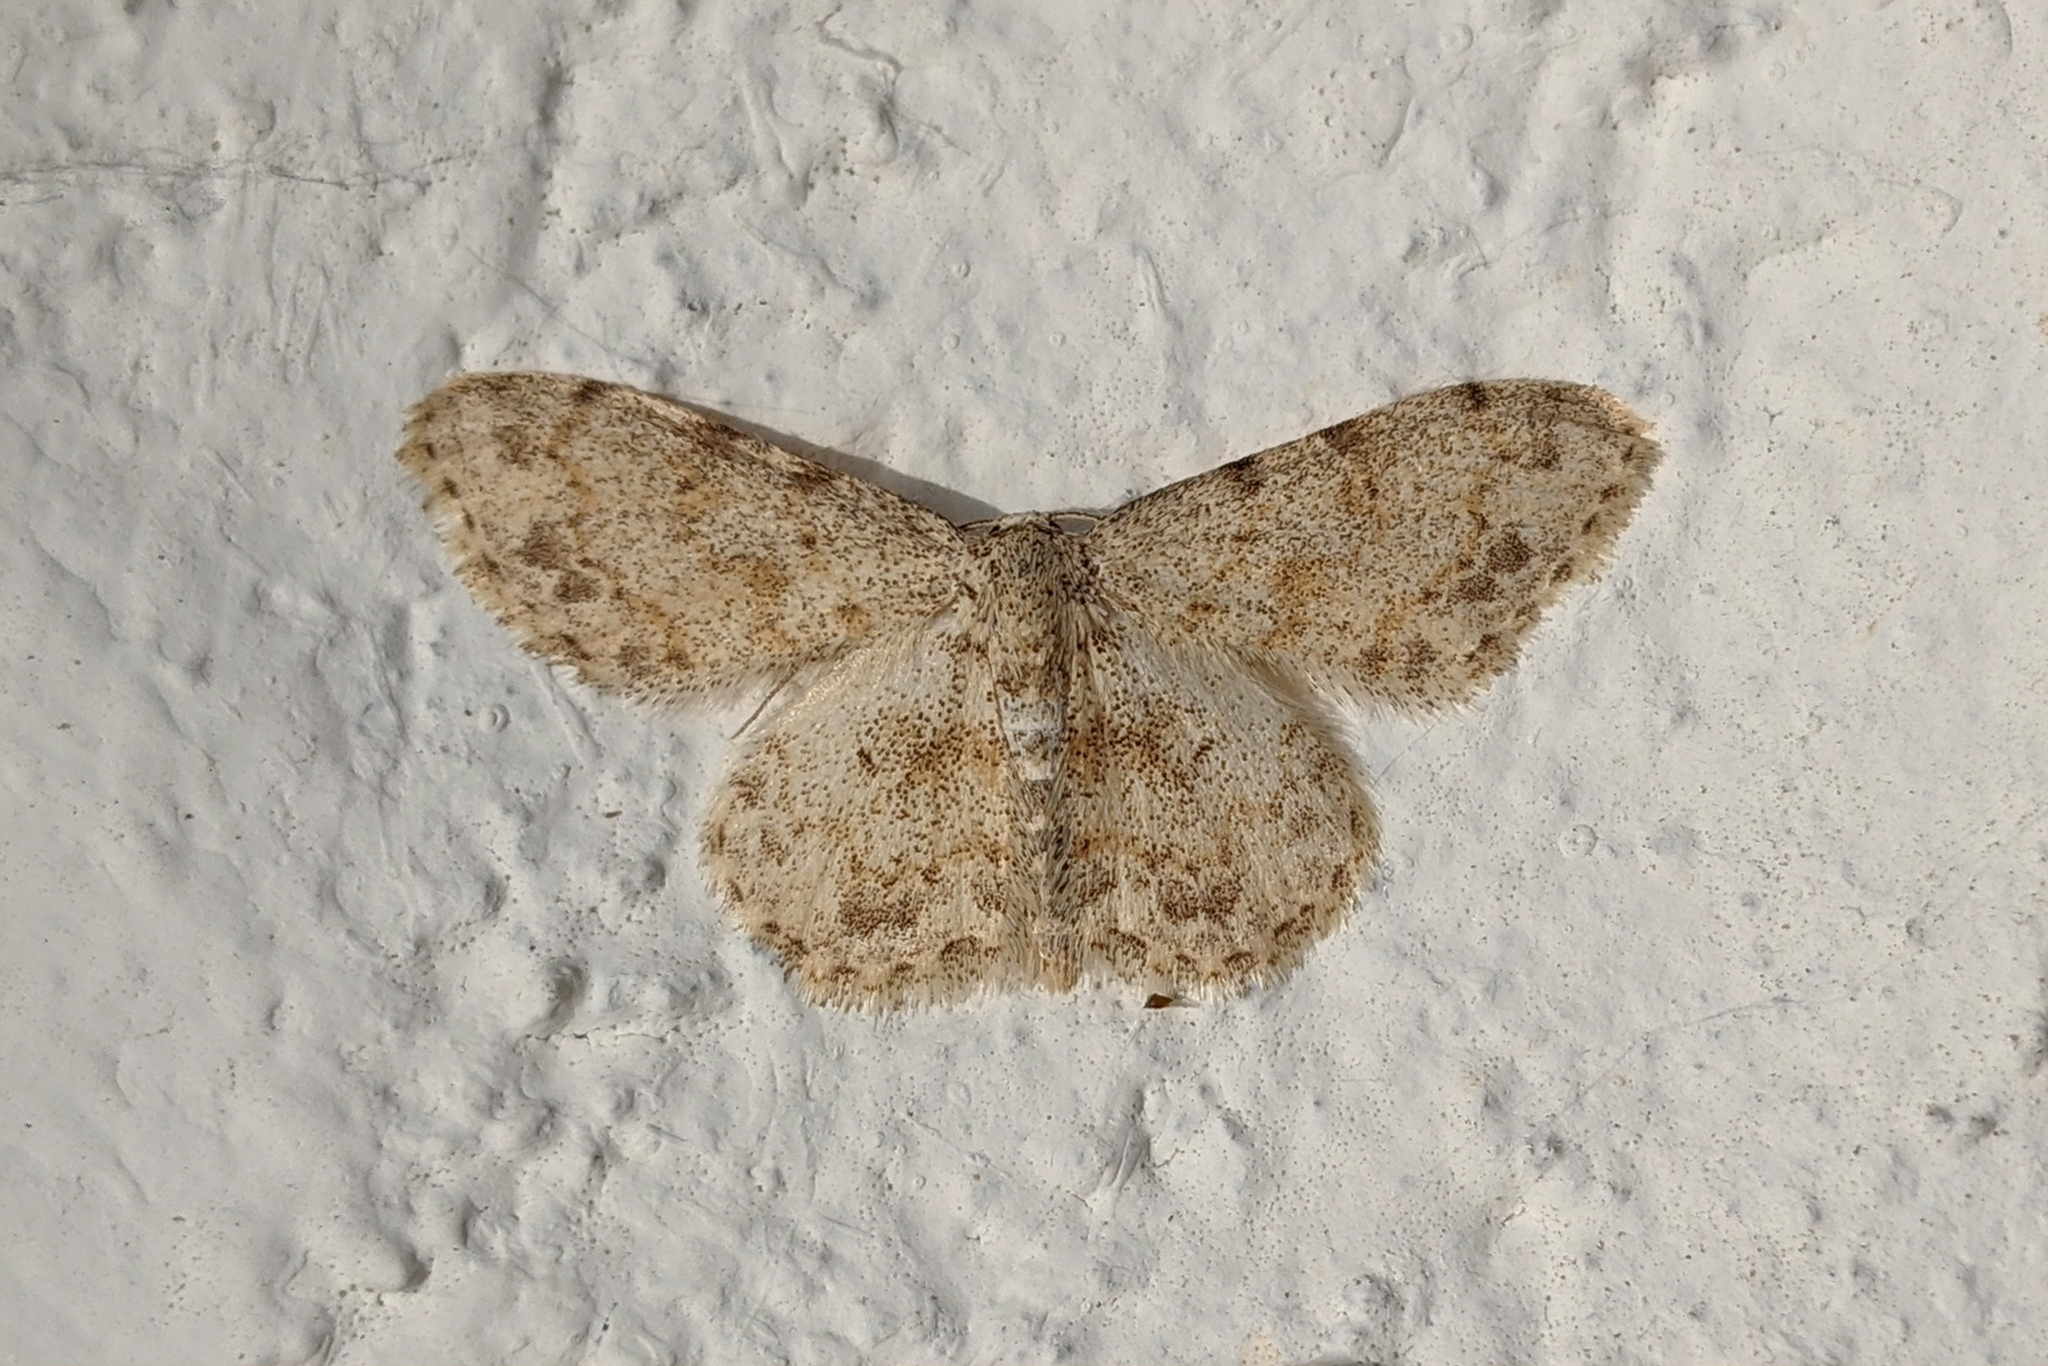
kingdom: Animalia
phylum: Arthropoda
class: Insecta
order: Lepidoptera
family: Geometridae
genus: Scopula
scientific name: Scopula luridata
